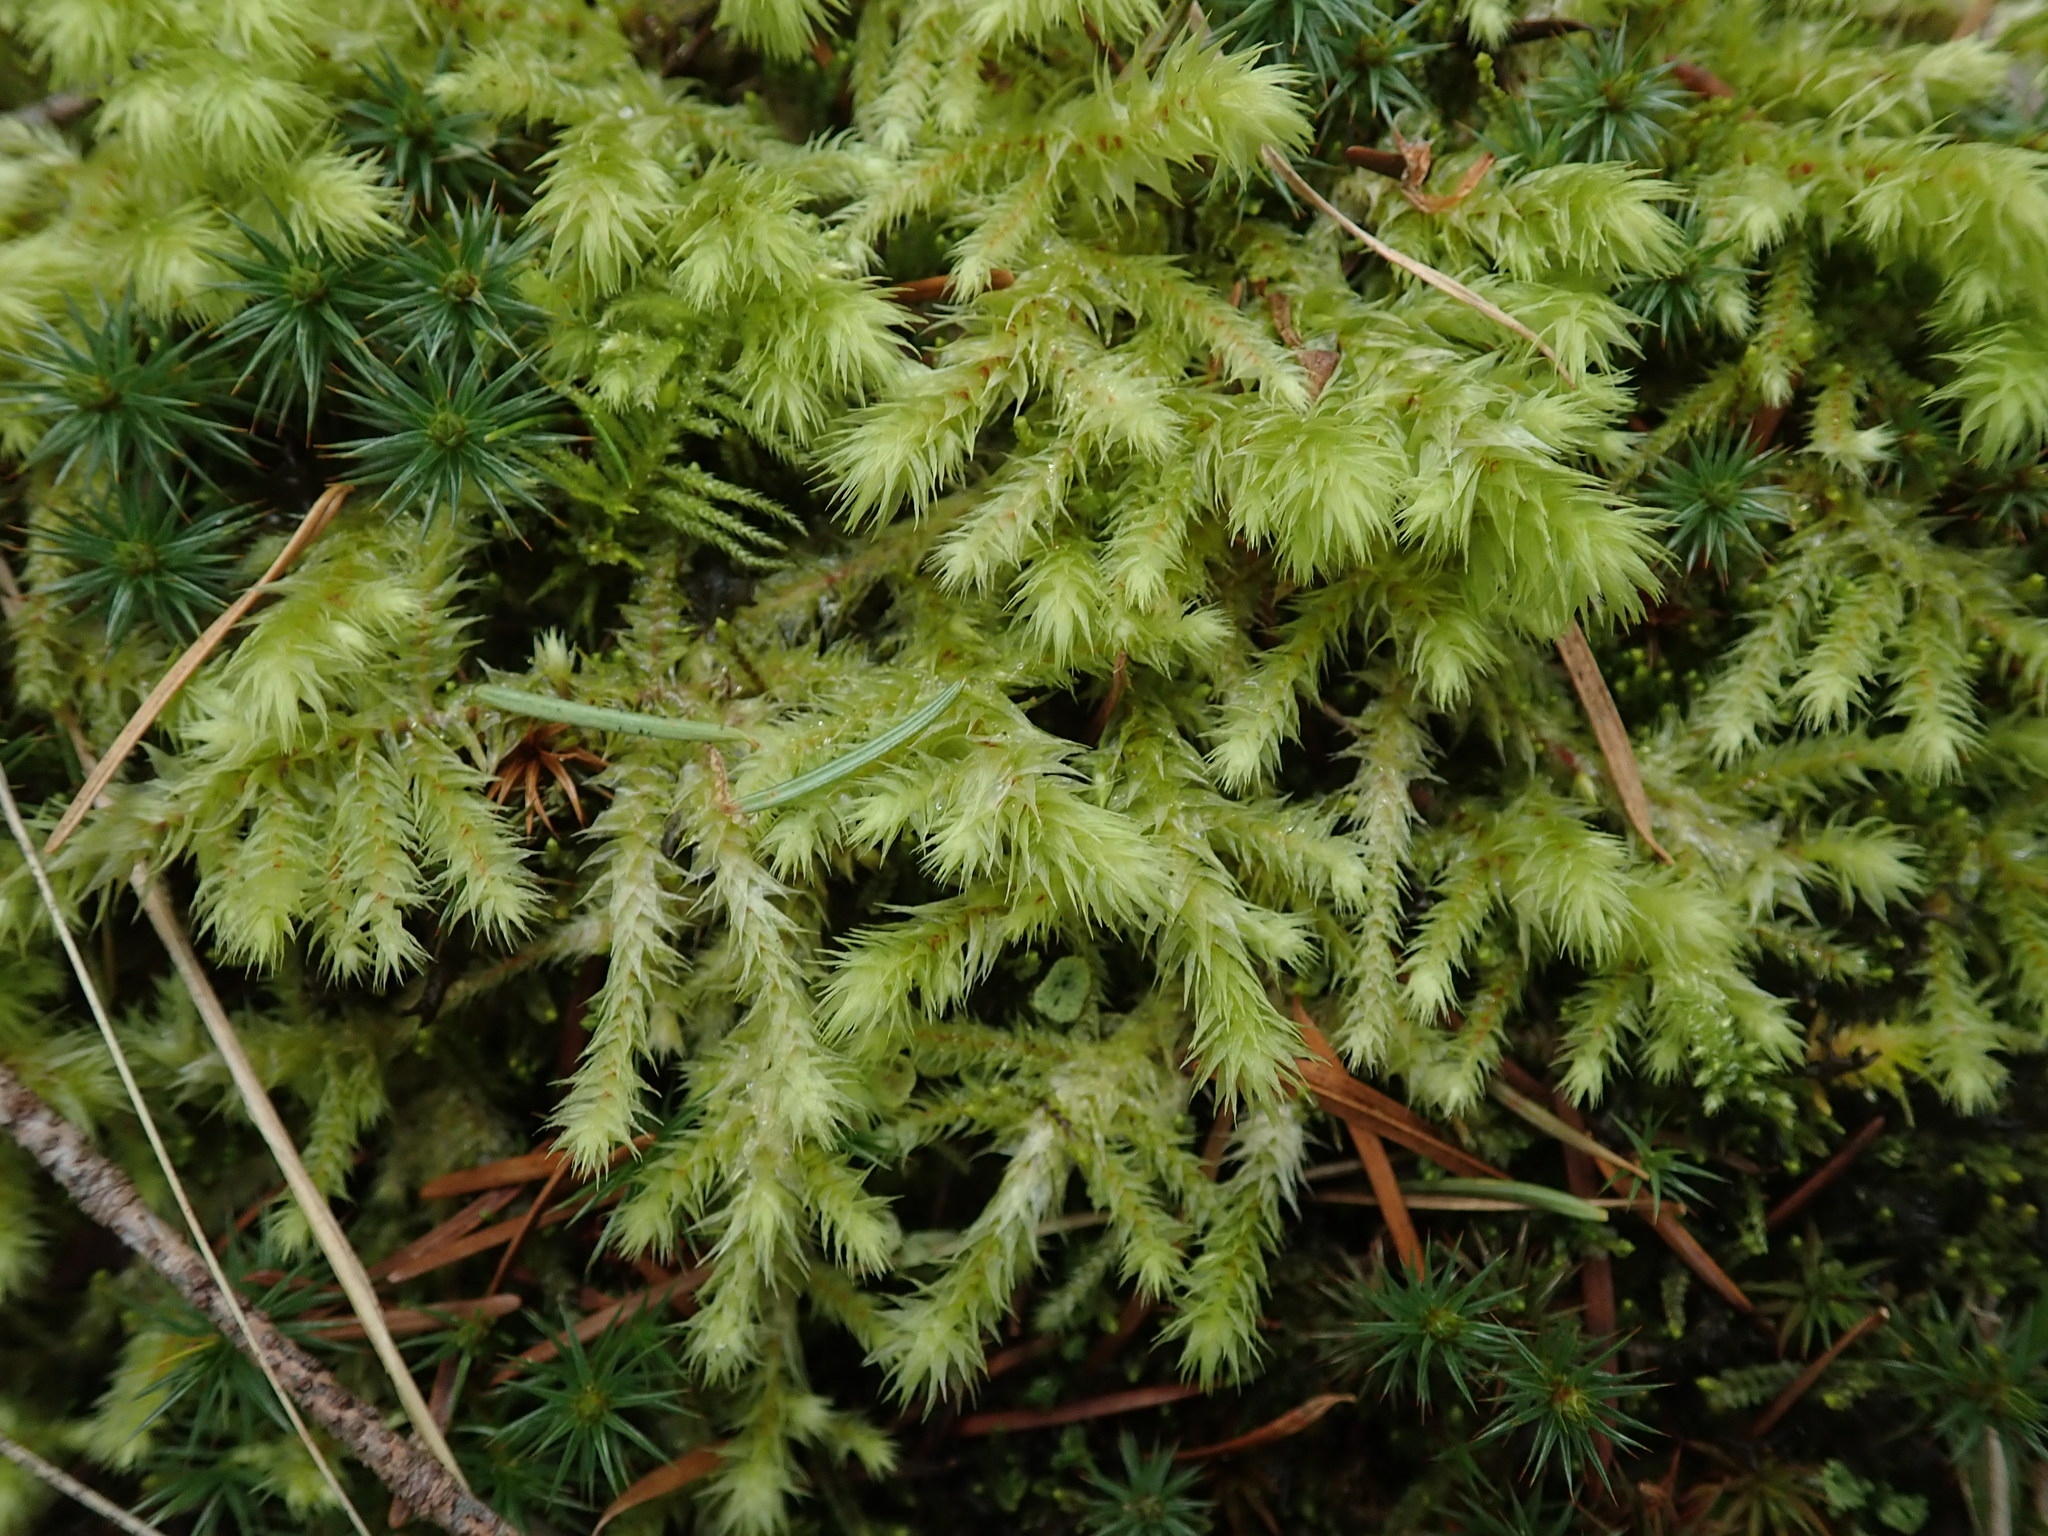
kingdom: Plantae
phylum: Bryophyta
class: Bryopsida
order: Hypnales
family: Hylocomiaceae
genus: Hylocomiadelphus
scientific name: Hylocomiadelphus triquetrus
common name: Rough goose neck moss
